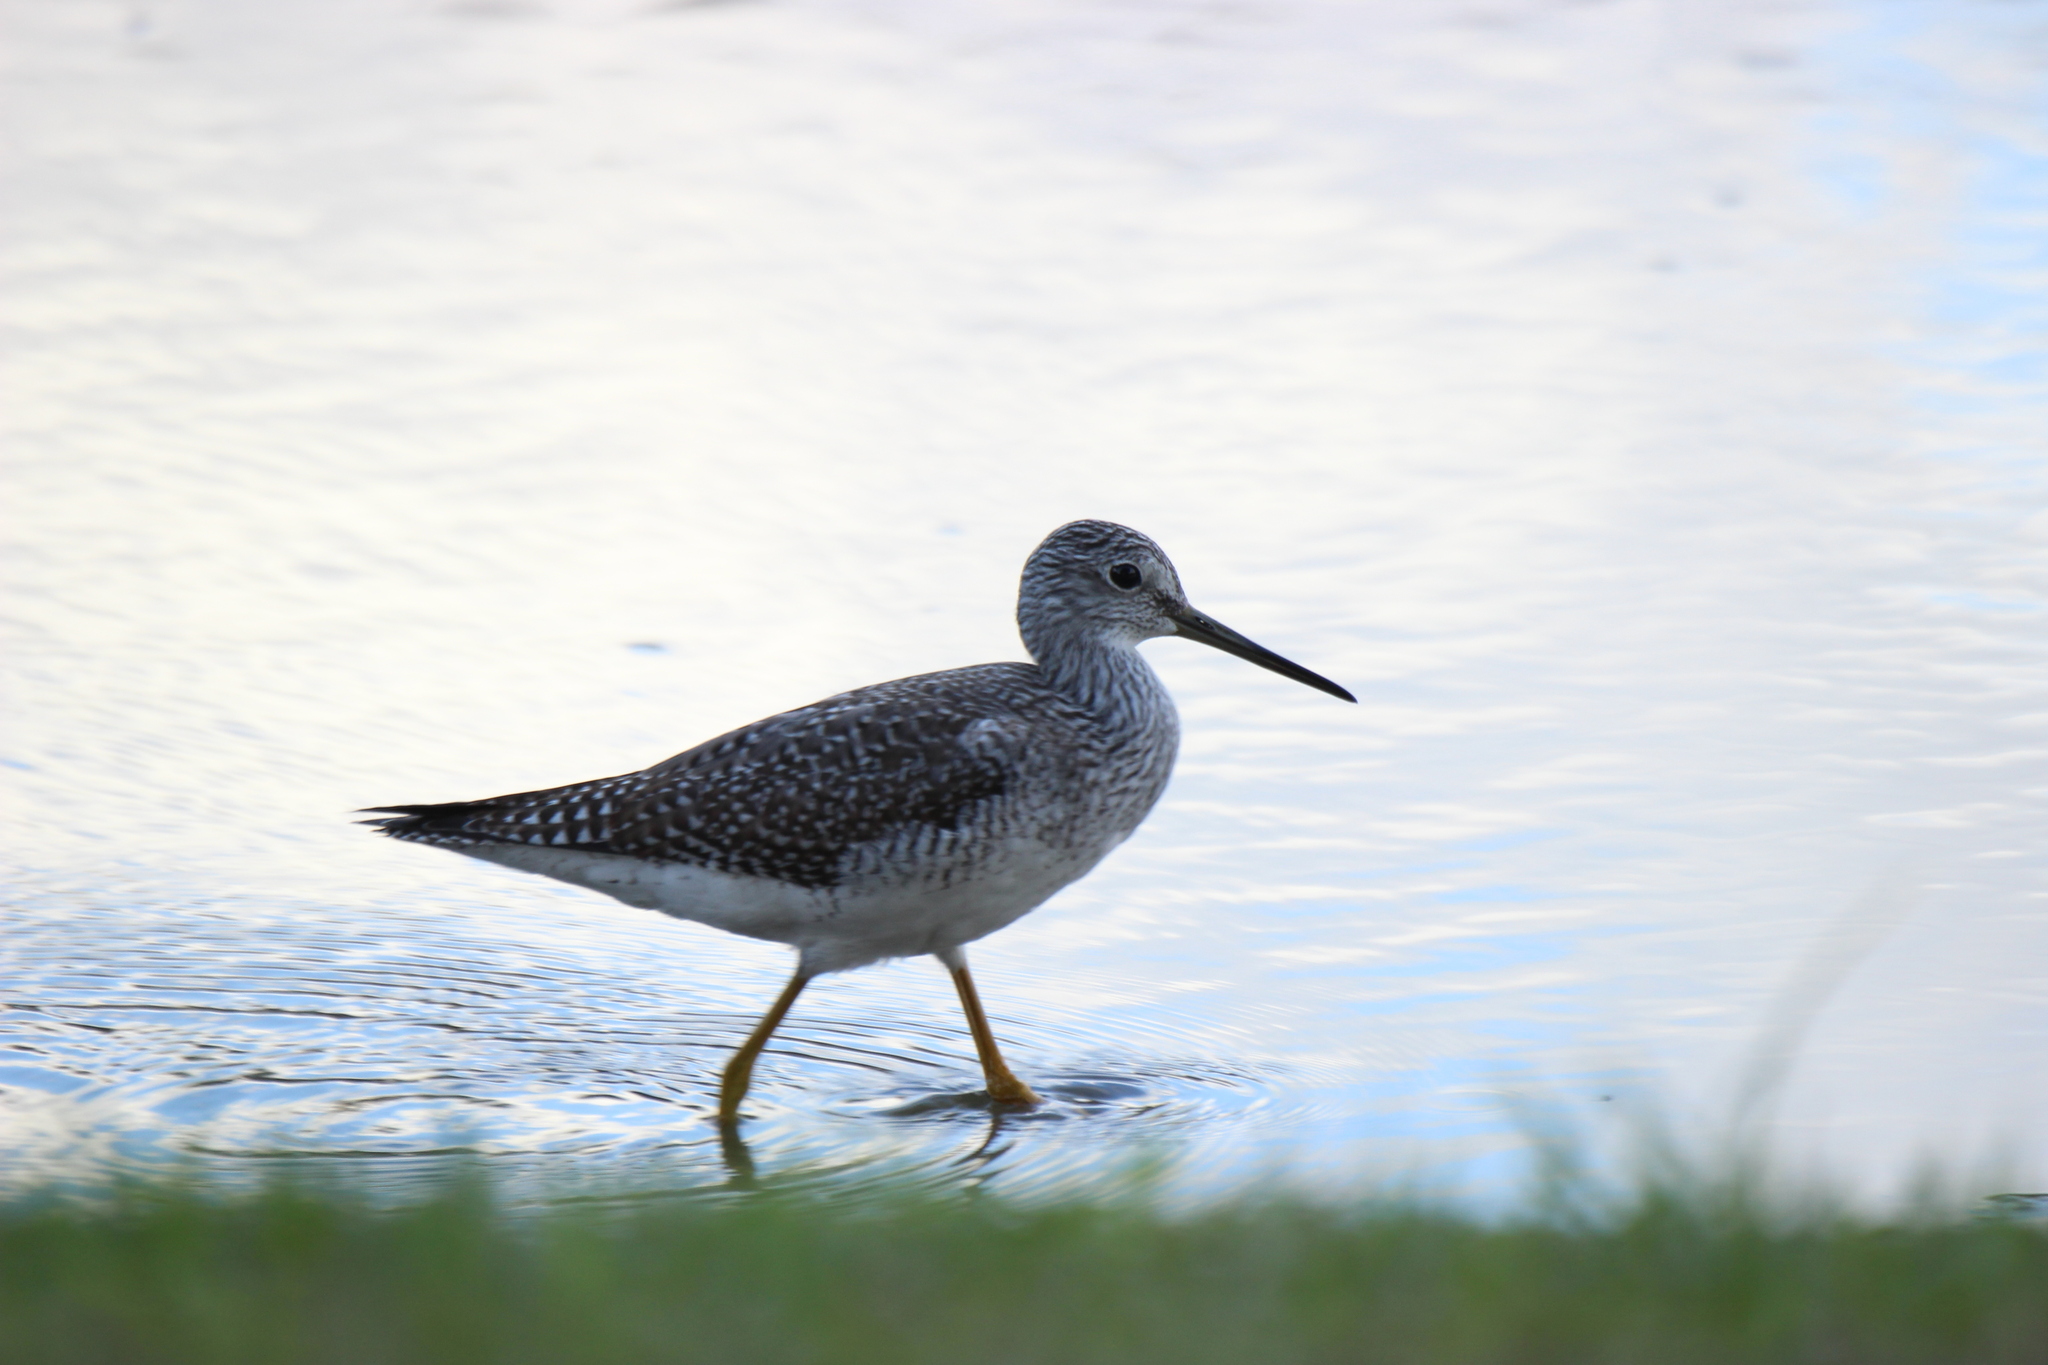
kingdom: Animalia
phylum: Chordata
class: Aves
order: Charadriiformes
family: Scolopacidae
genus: Tringa
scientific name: Tringa melanoleuca
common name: Greater yellowlegs
